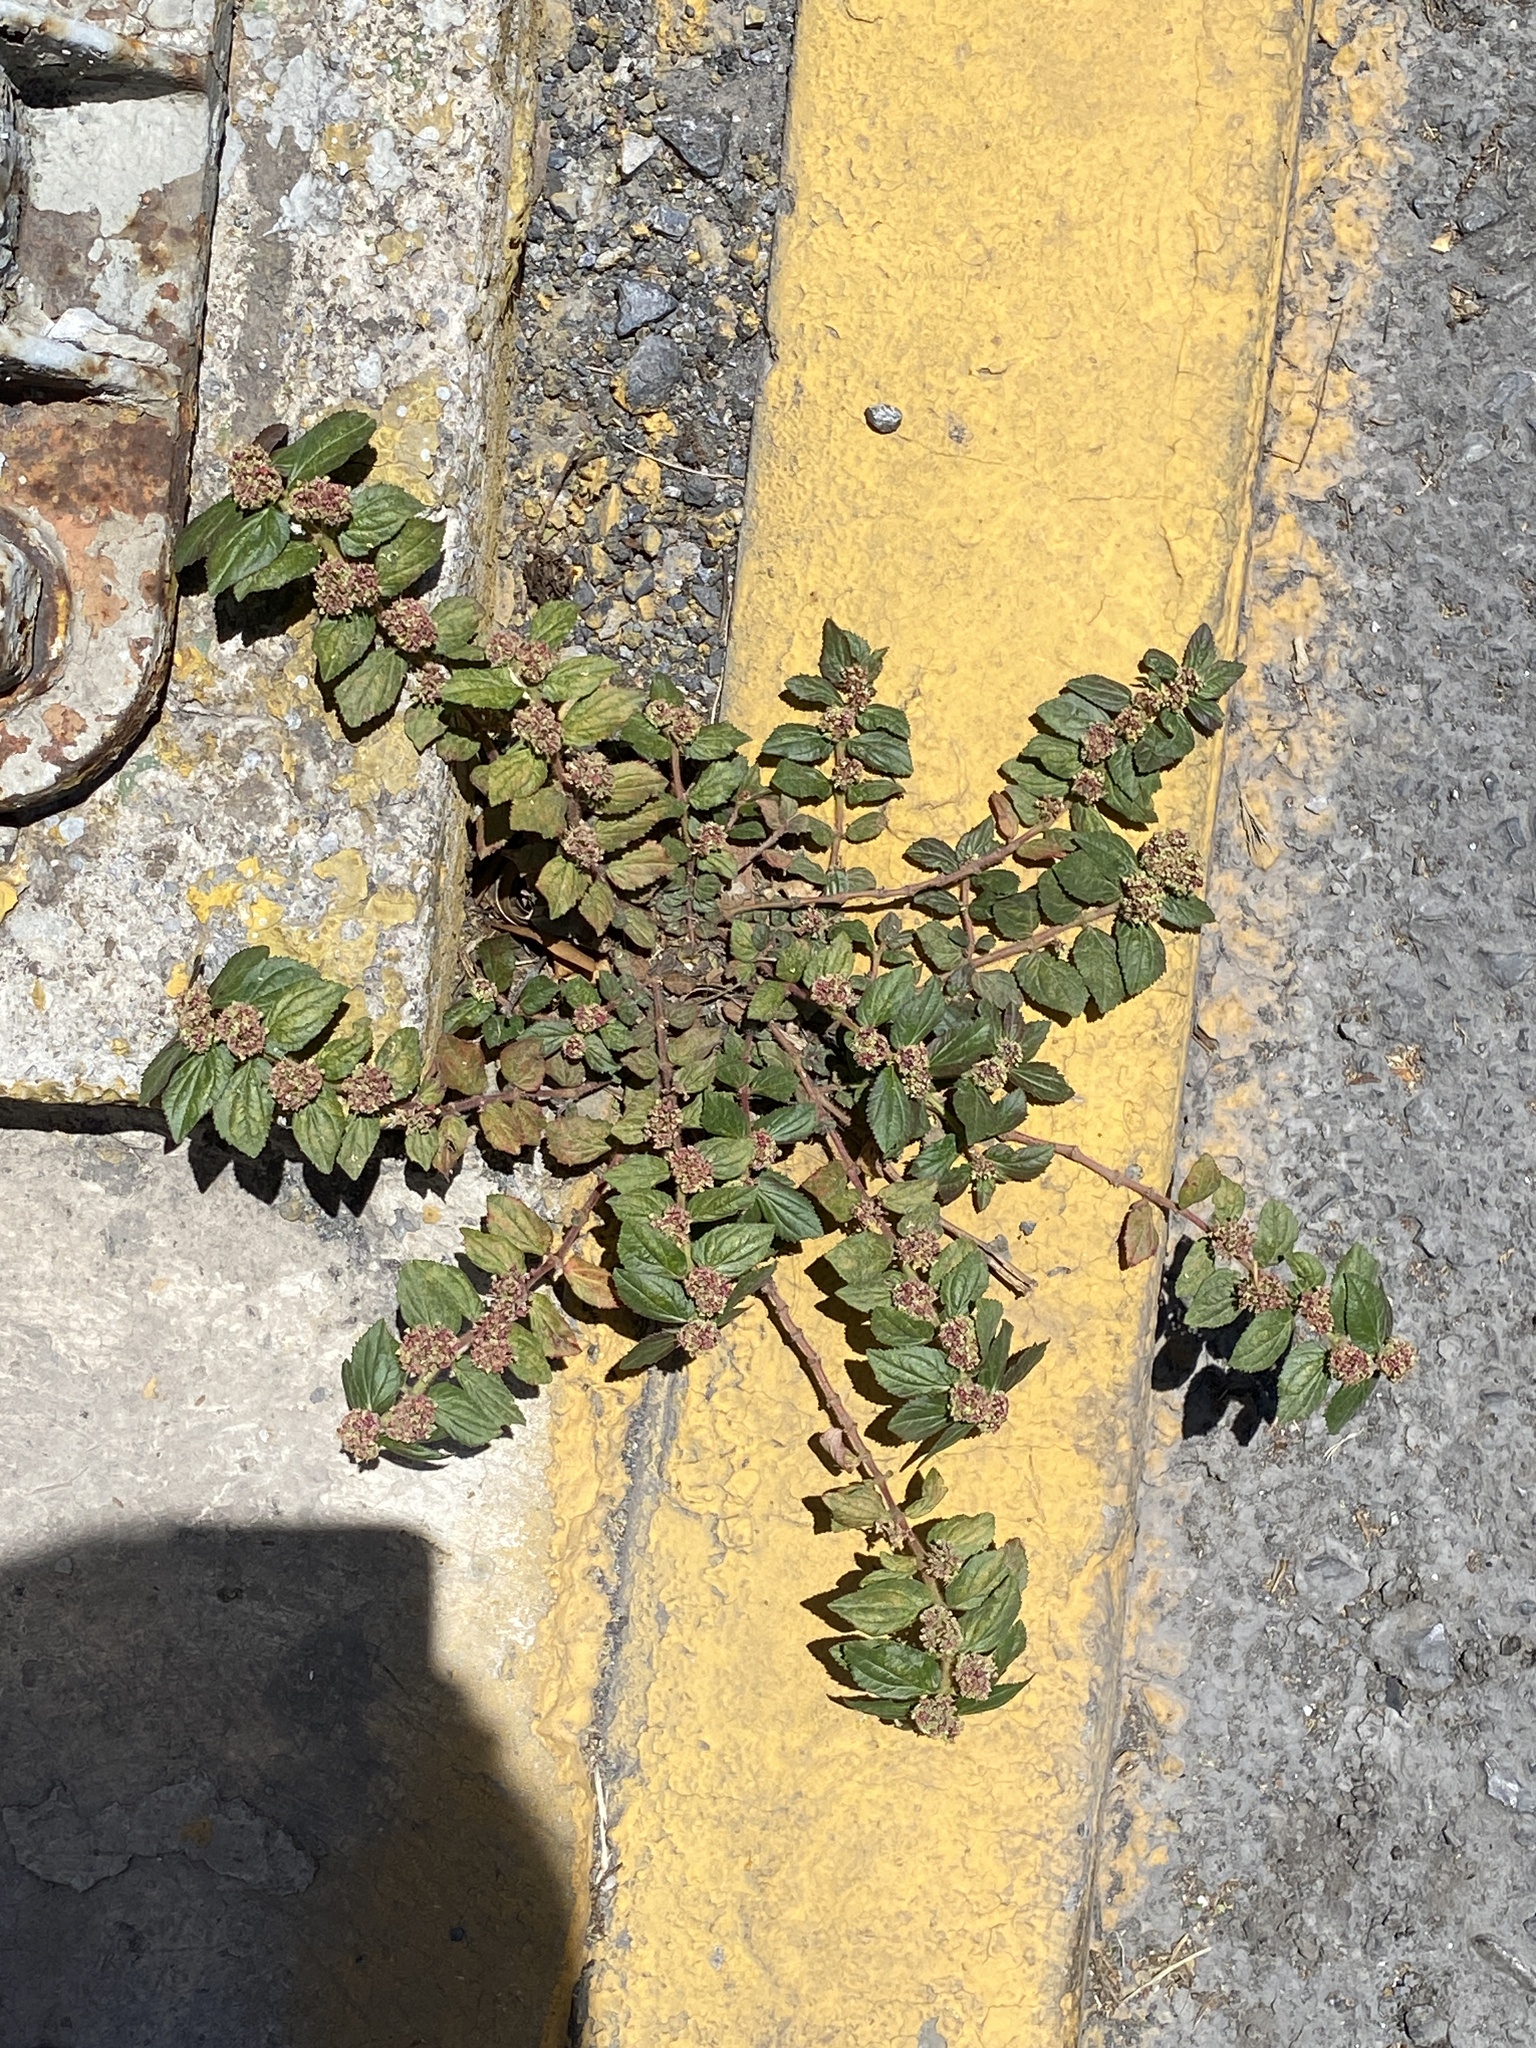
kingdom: Plantae
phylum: Tracheophyta
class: Magnoliopsida
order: Malpighiales
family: Euphorbiaceae
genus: Euphorbia
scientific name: Euphorbia hirta
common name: Pillpod sandmat
